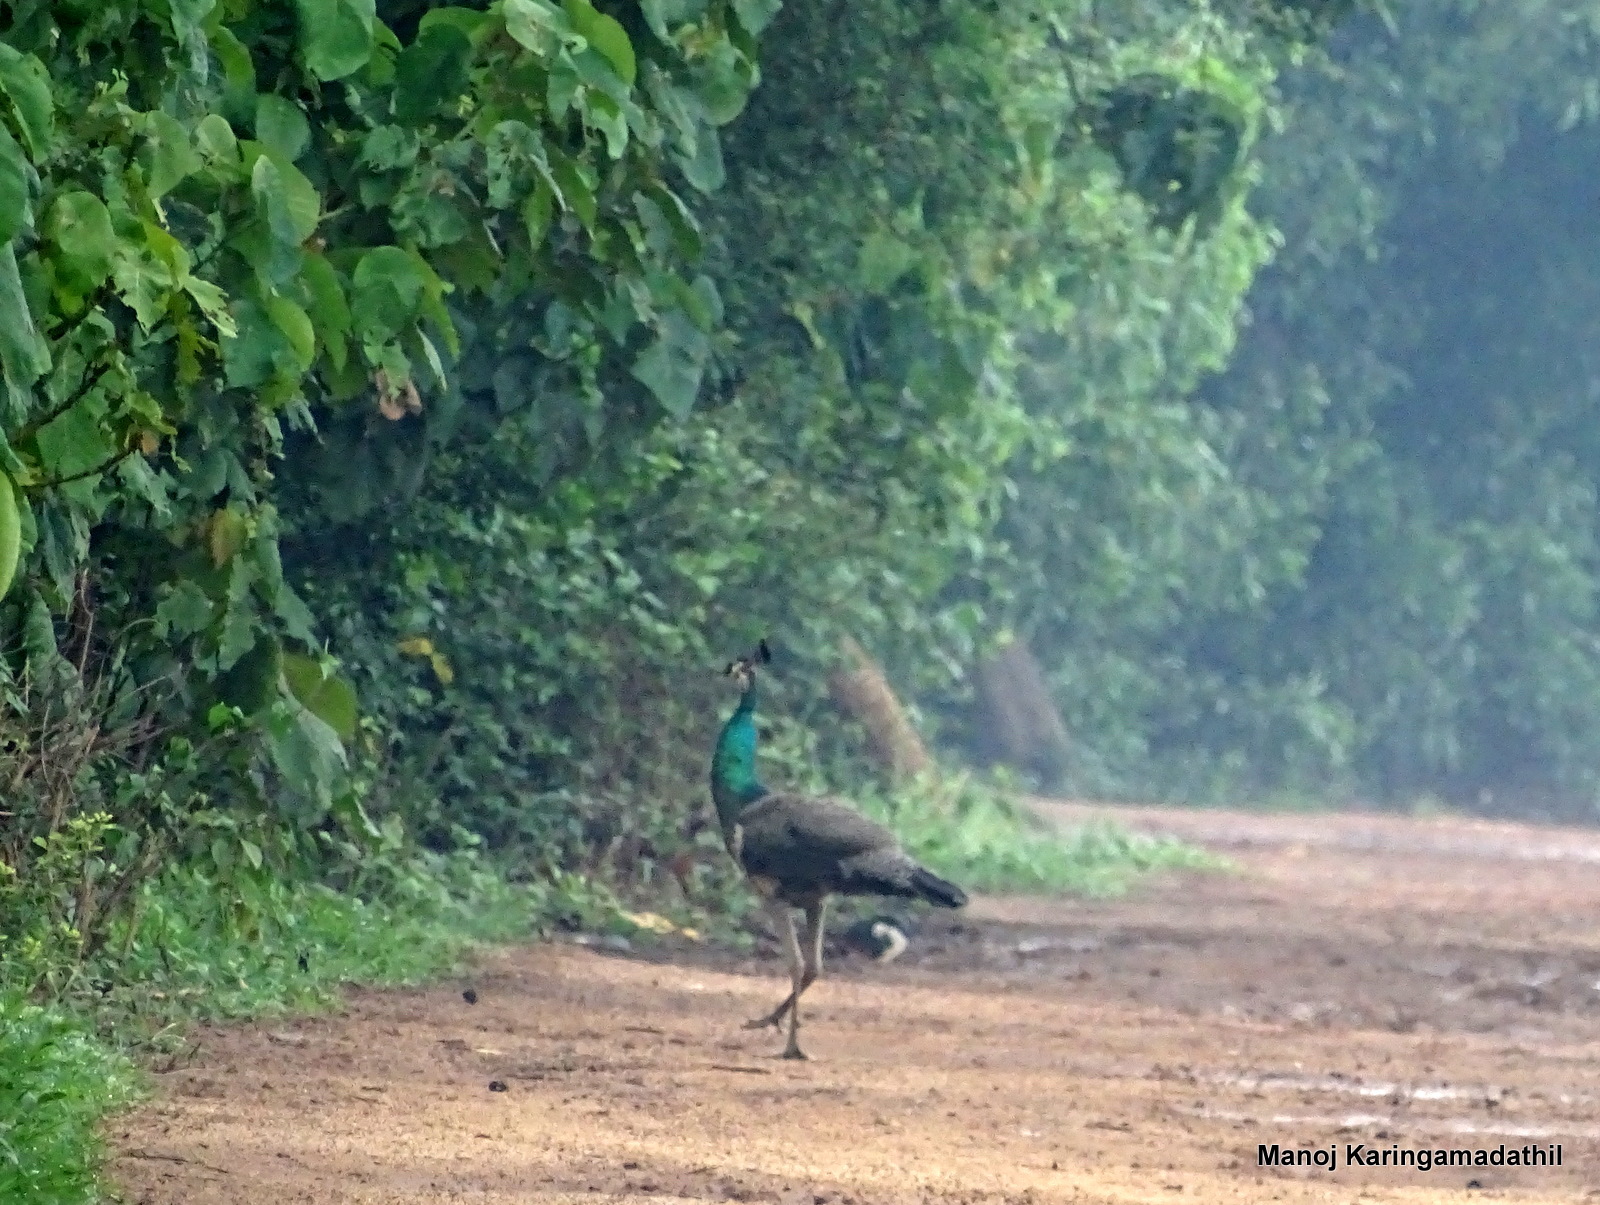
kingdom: Animalia
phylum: Chordata
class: Aves
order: Galliformes
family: Phasianidae
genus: Pavo
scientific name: Pavo cristatus
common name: Indian peafowl
